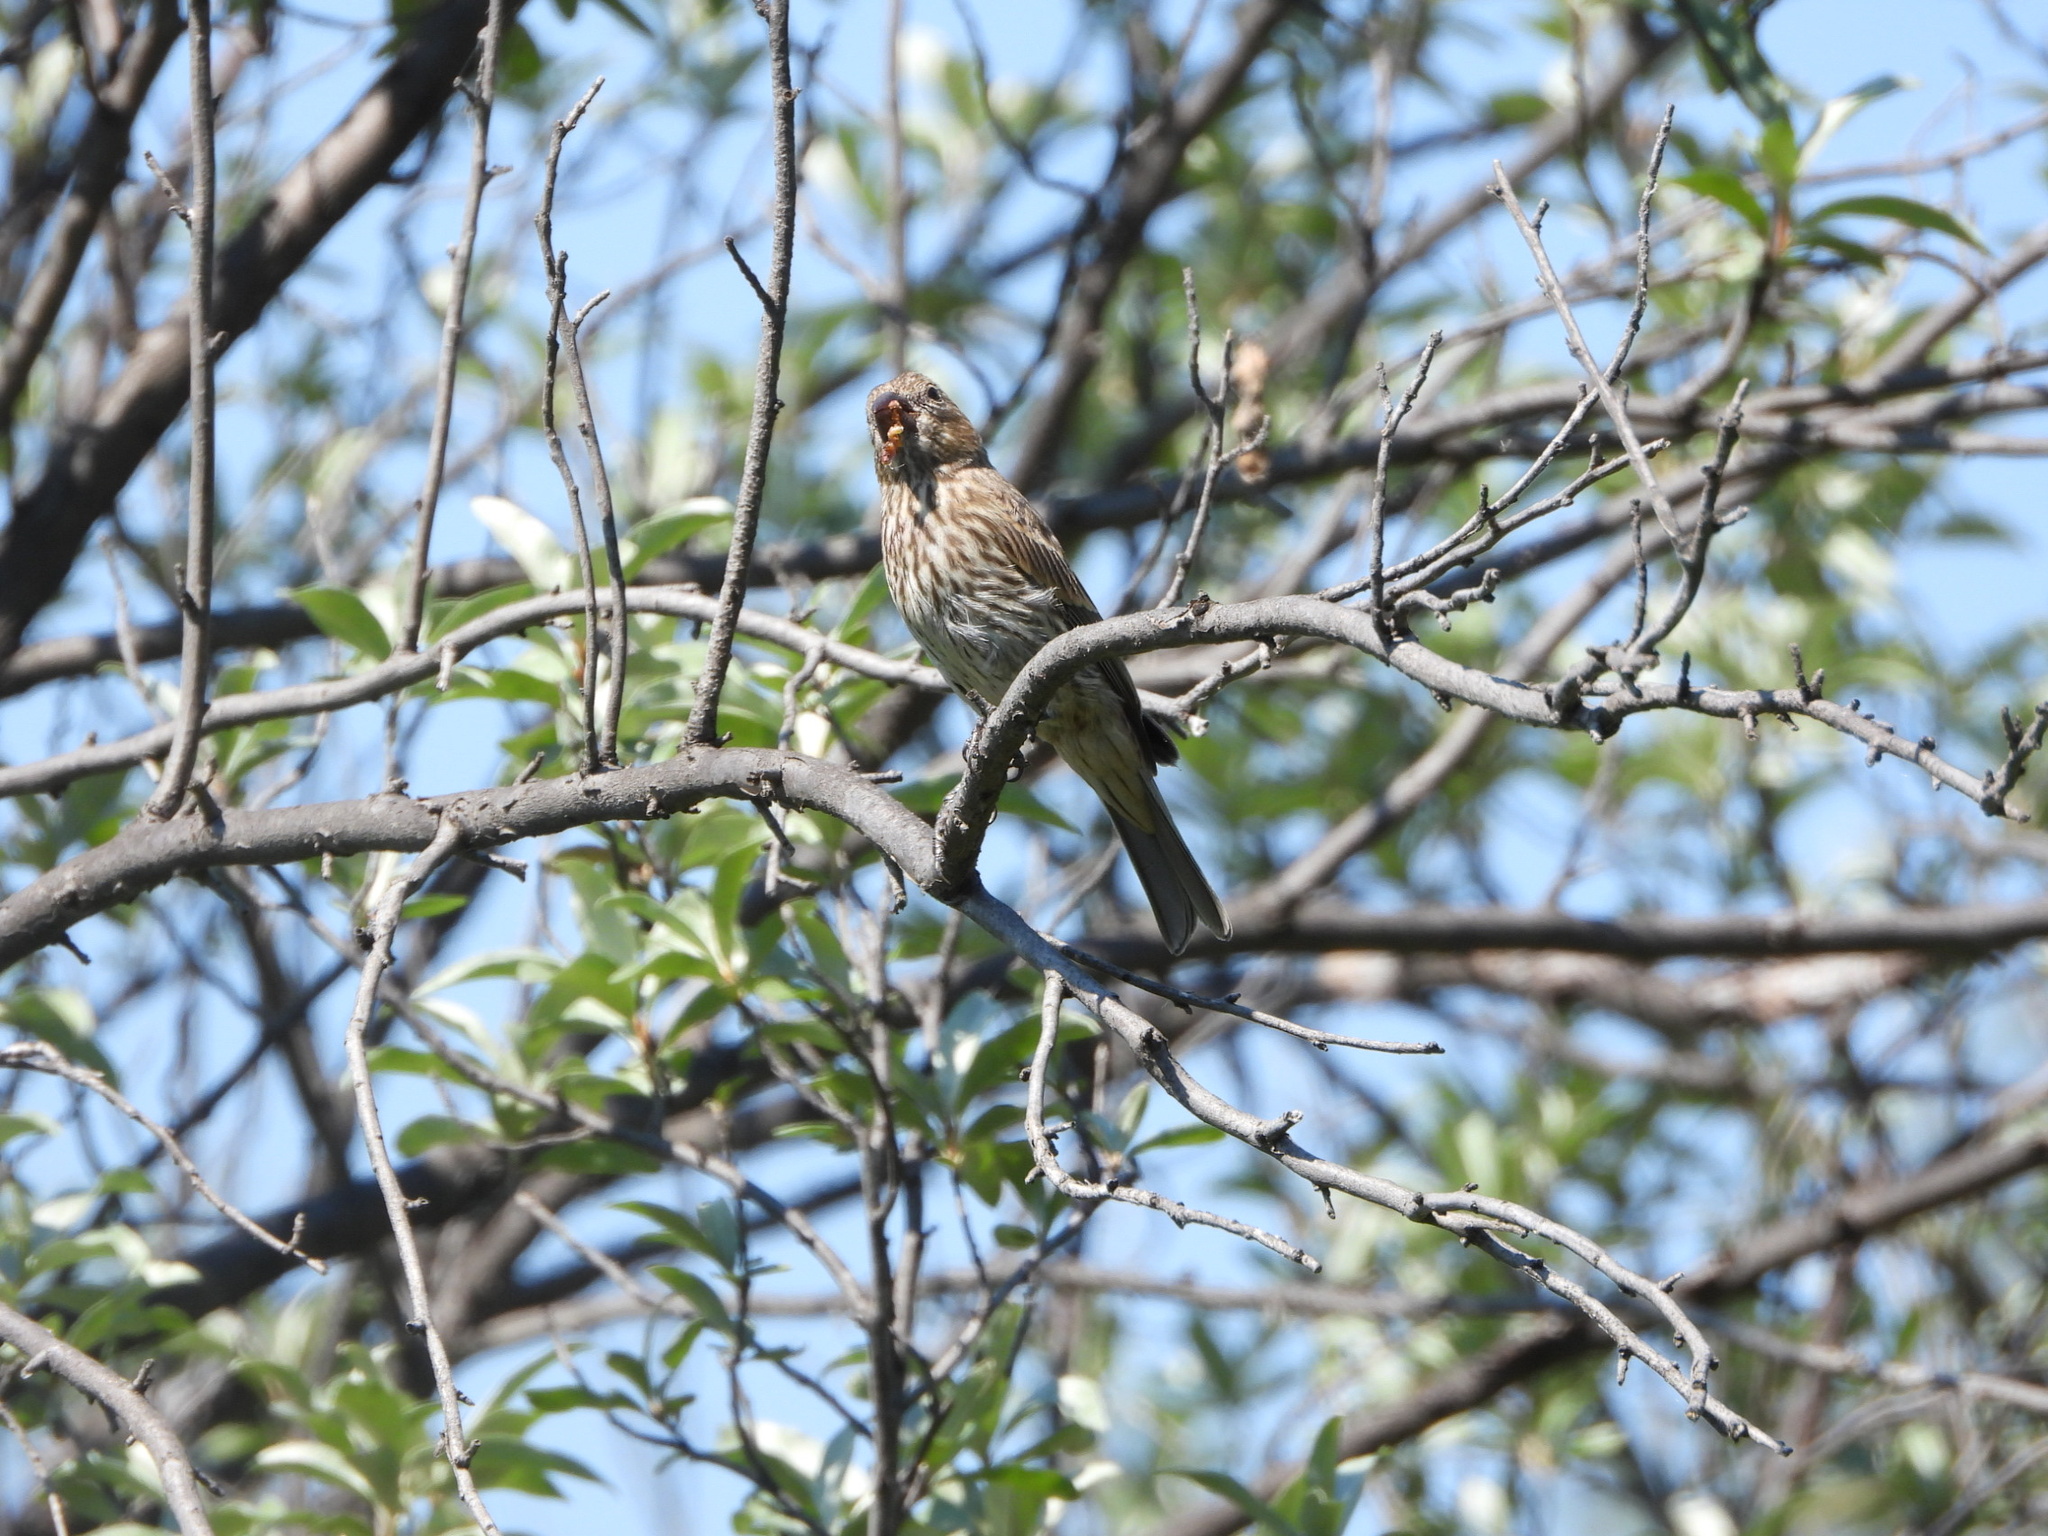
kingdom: Animalia
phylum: Chordata
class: Aves
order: Passeriformes
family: Fringillidae
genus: Haemorhous
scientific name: Haemorhous mexicanus
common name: House finch
